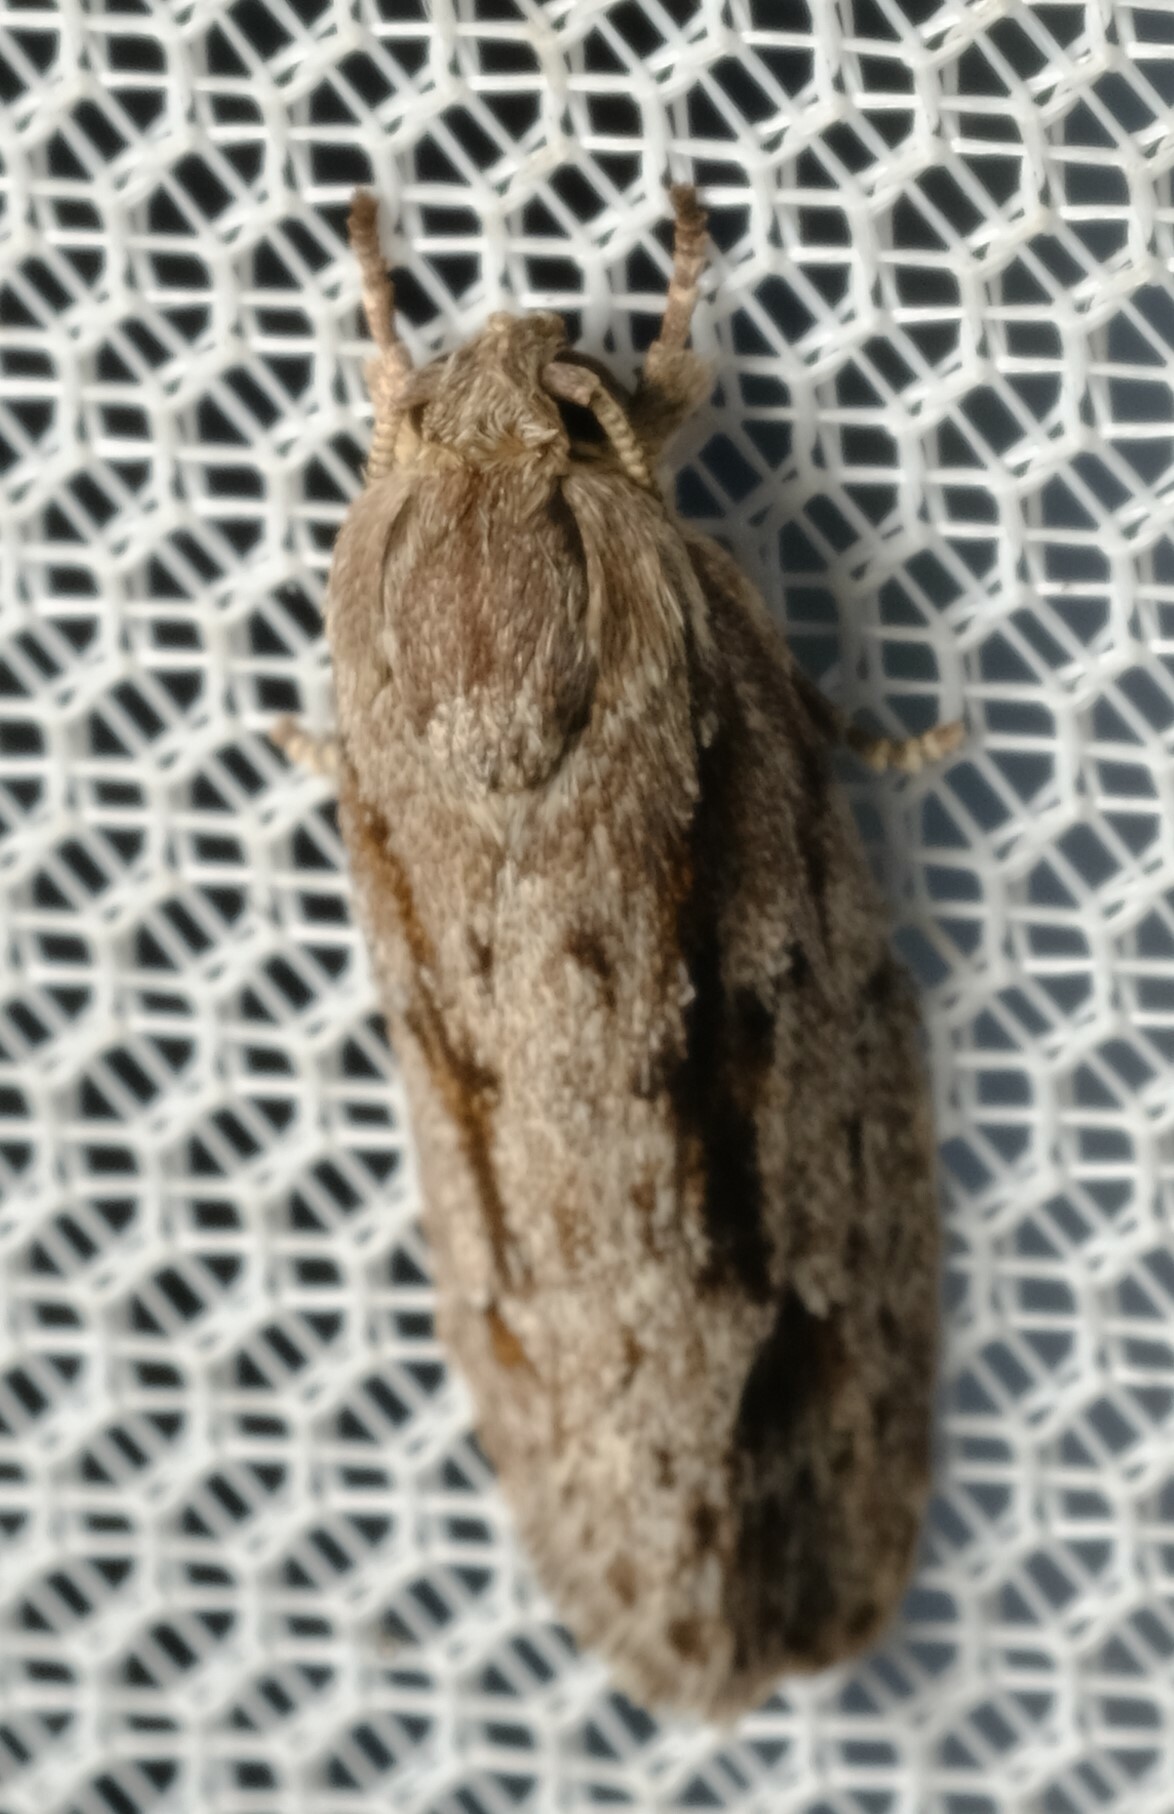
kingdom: Animalia
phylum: Arthropoda
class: Insecta
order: Lepidoptera
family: Depressariidae
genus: Agriophara
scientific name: Agriophara discobola
